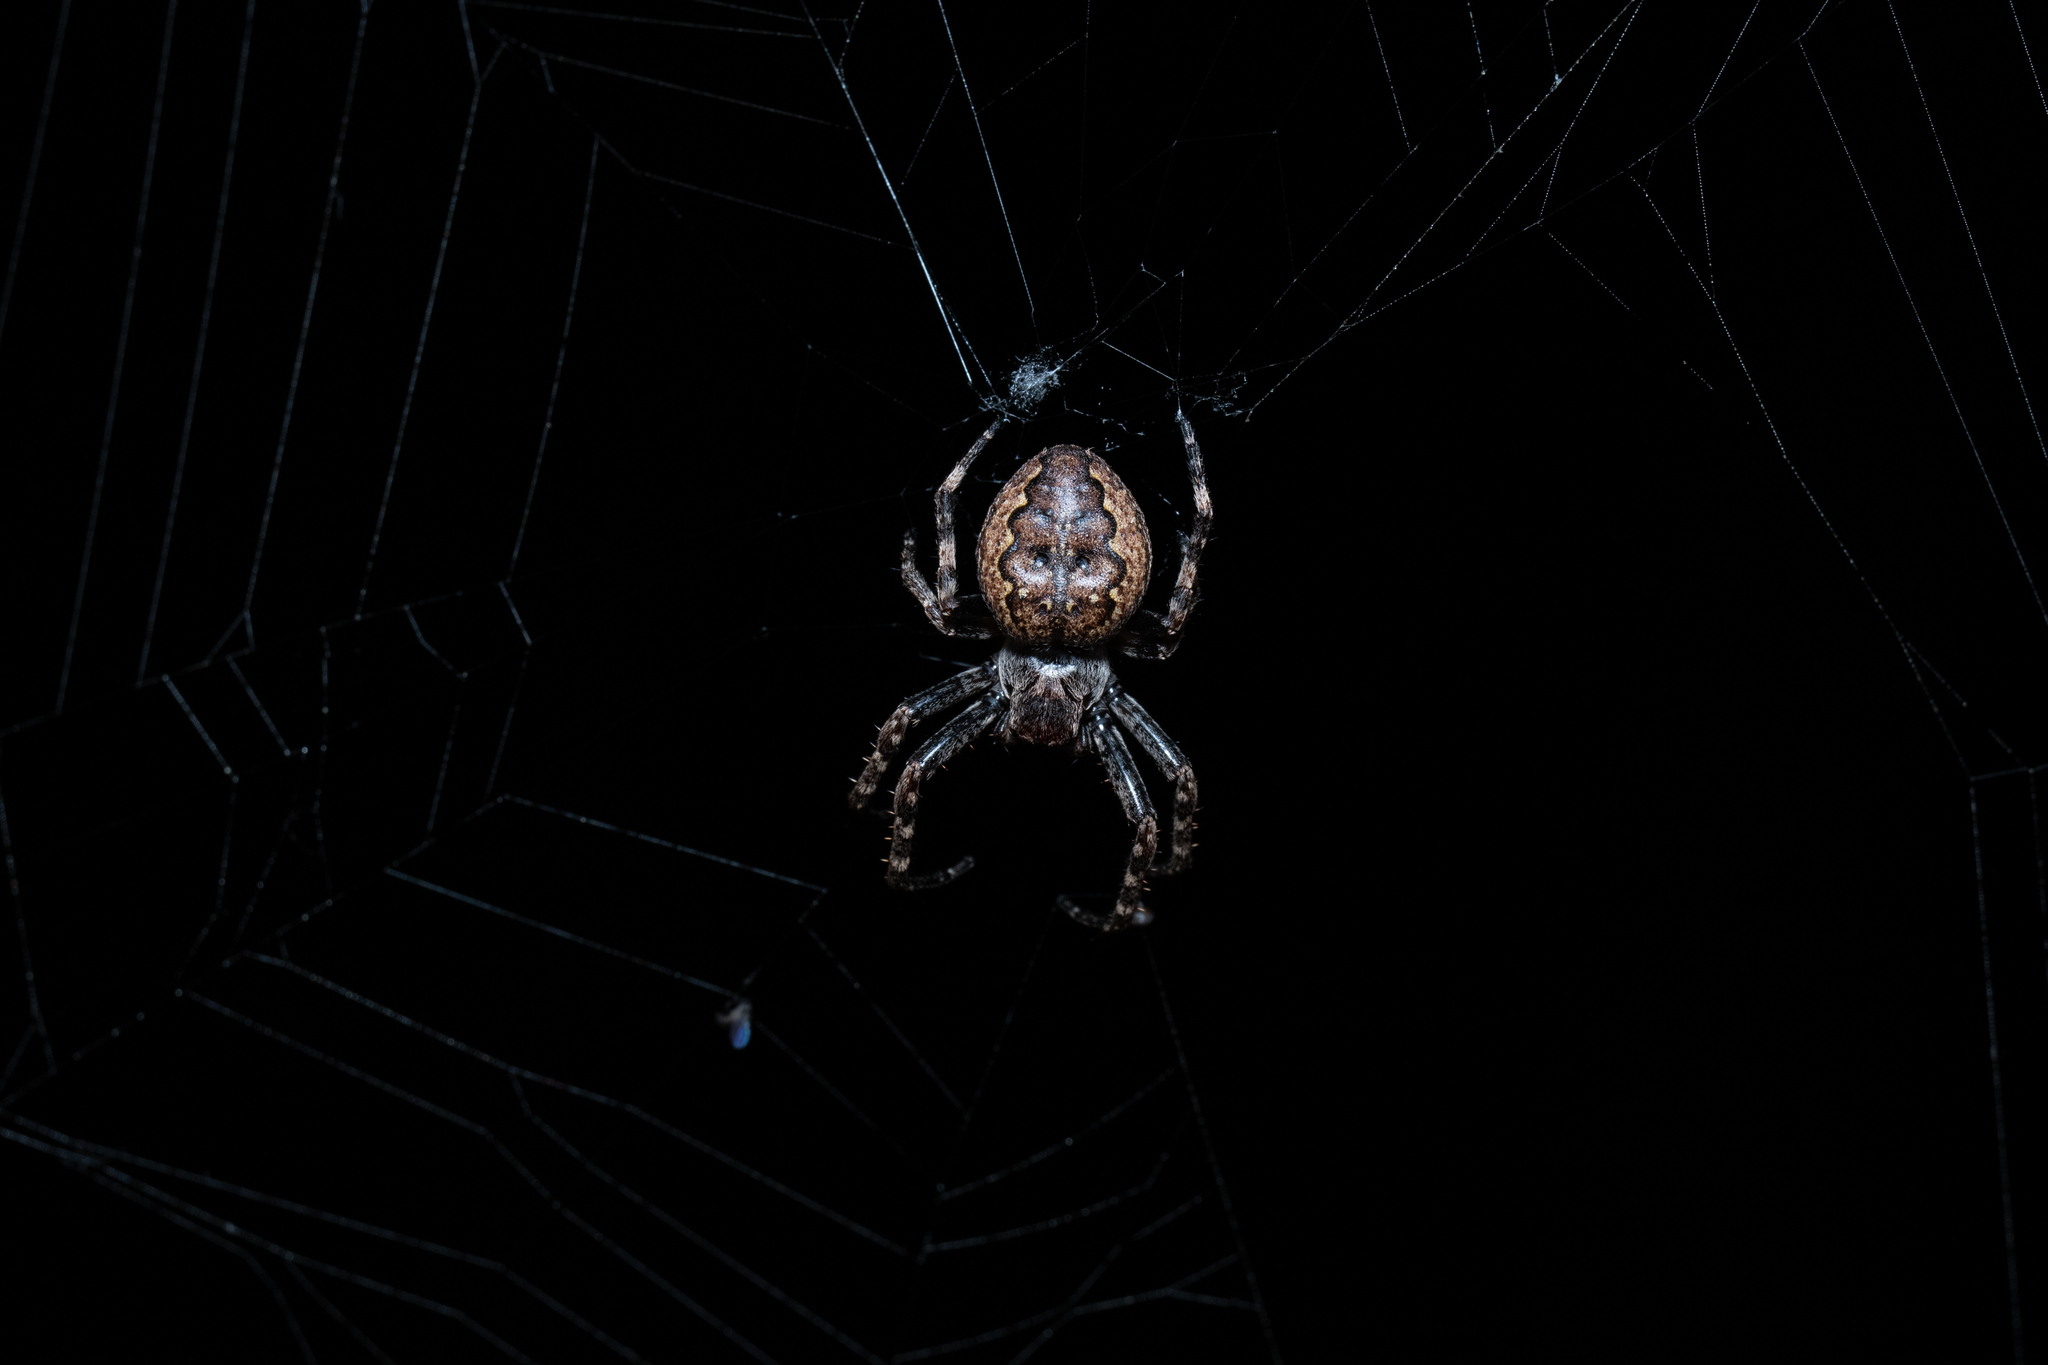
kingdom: Animalia
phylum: Arthropoda
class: Arachnida
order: Araneae
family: Araneidae
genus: Nuctenea
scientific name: Nuctenea umbratica
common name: Toad spider
